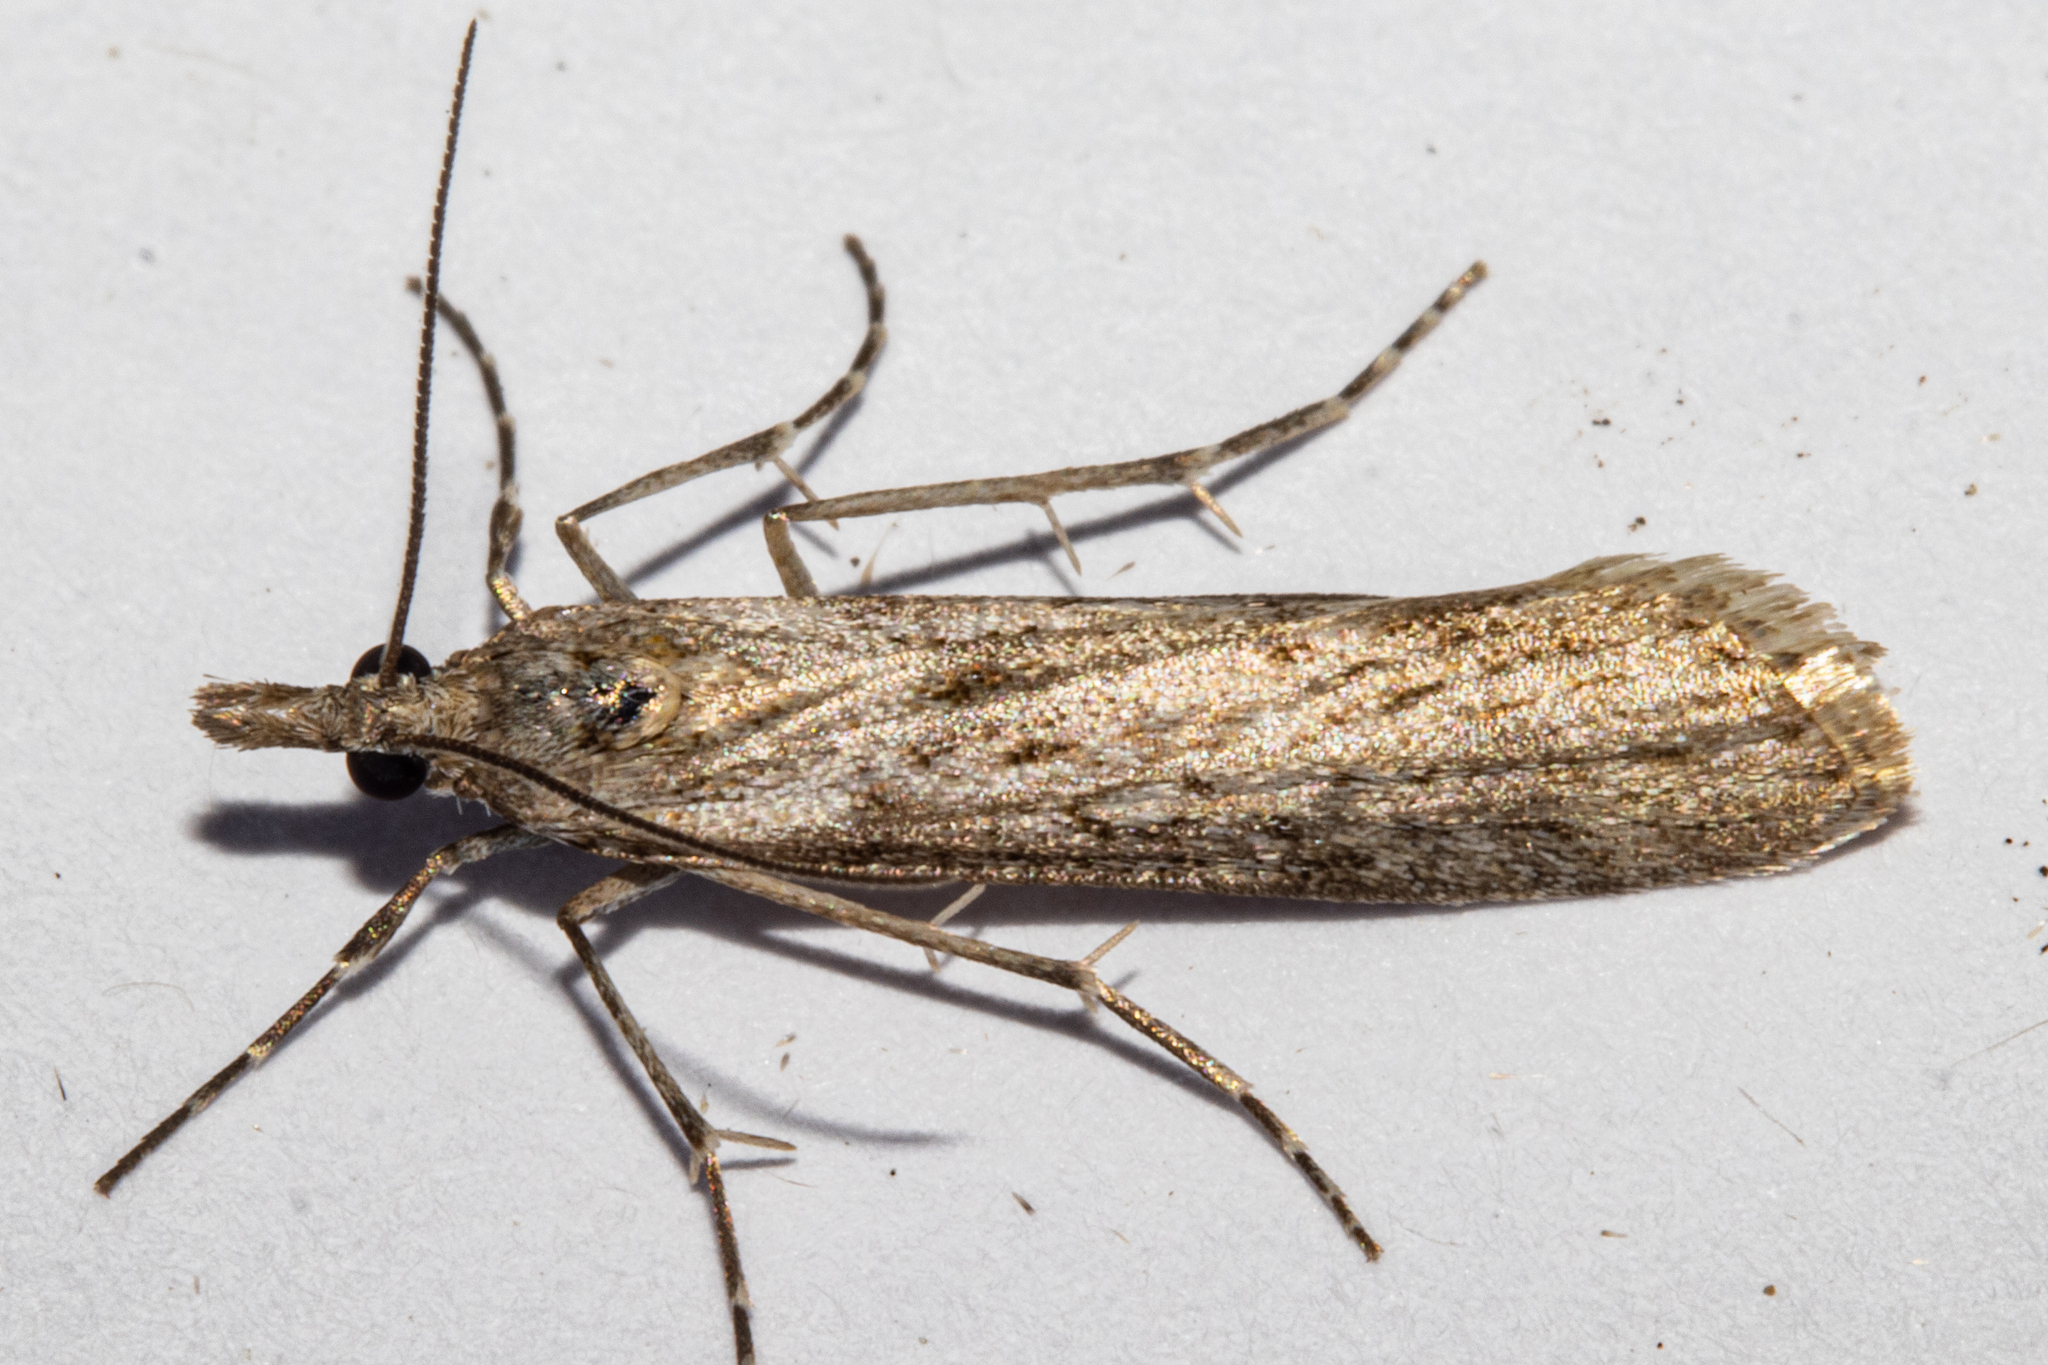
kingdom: Animalia
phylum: Arthropoda
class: Insecta
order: Lepidoptera
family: Crambidae
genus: Eudonia
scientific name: Eudonia leptalea
